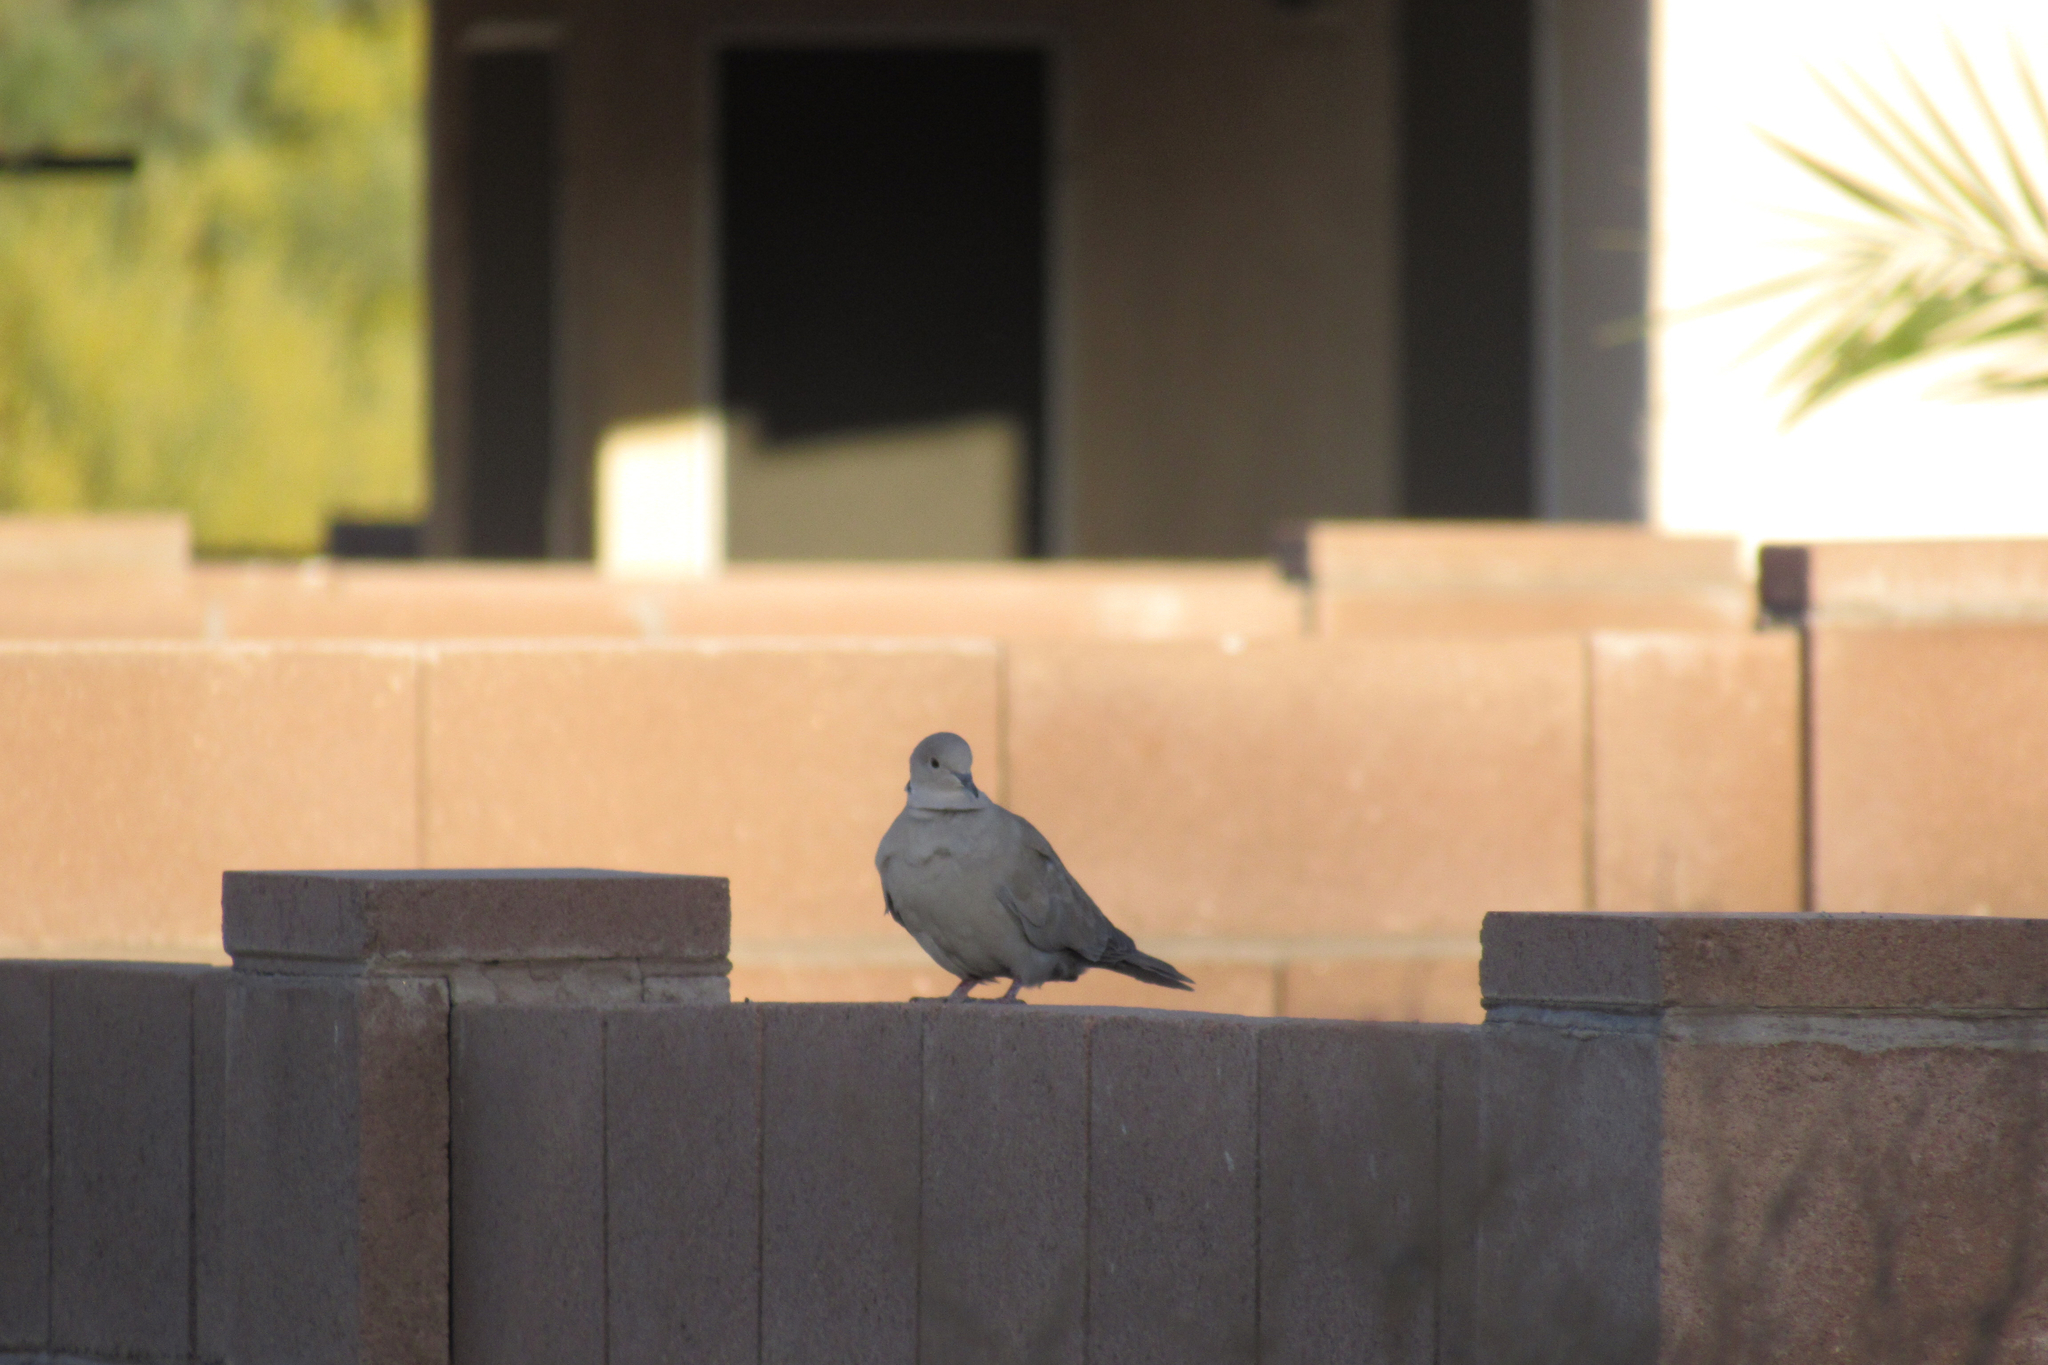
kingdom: Animalia
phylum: Chordata
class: Aves
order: Columbiformes
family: Columbidae
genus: Streptopelia
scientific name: Streptopelia decaocto
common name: Eurasian collared dove
